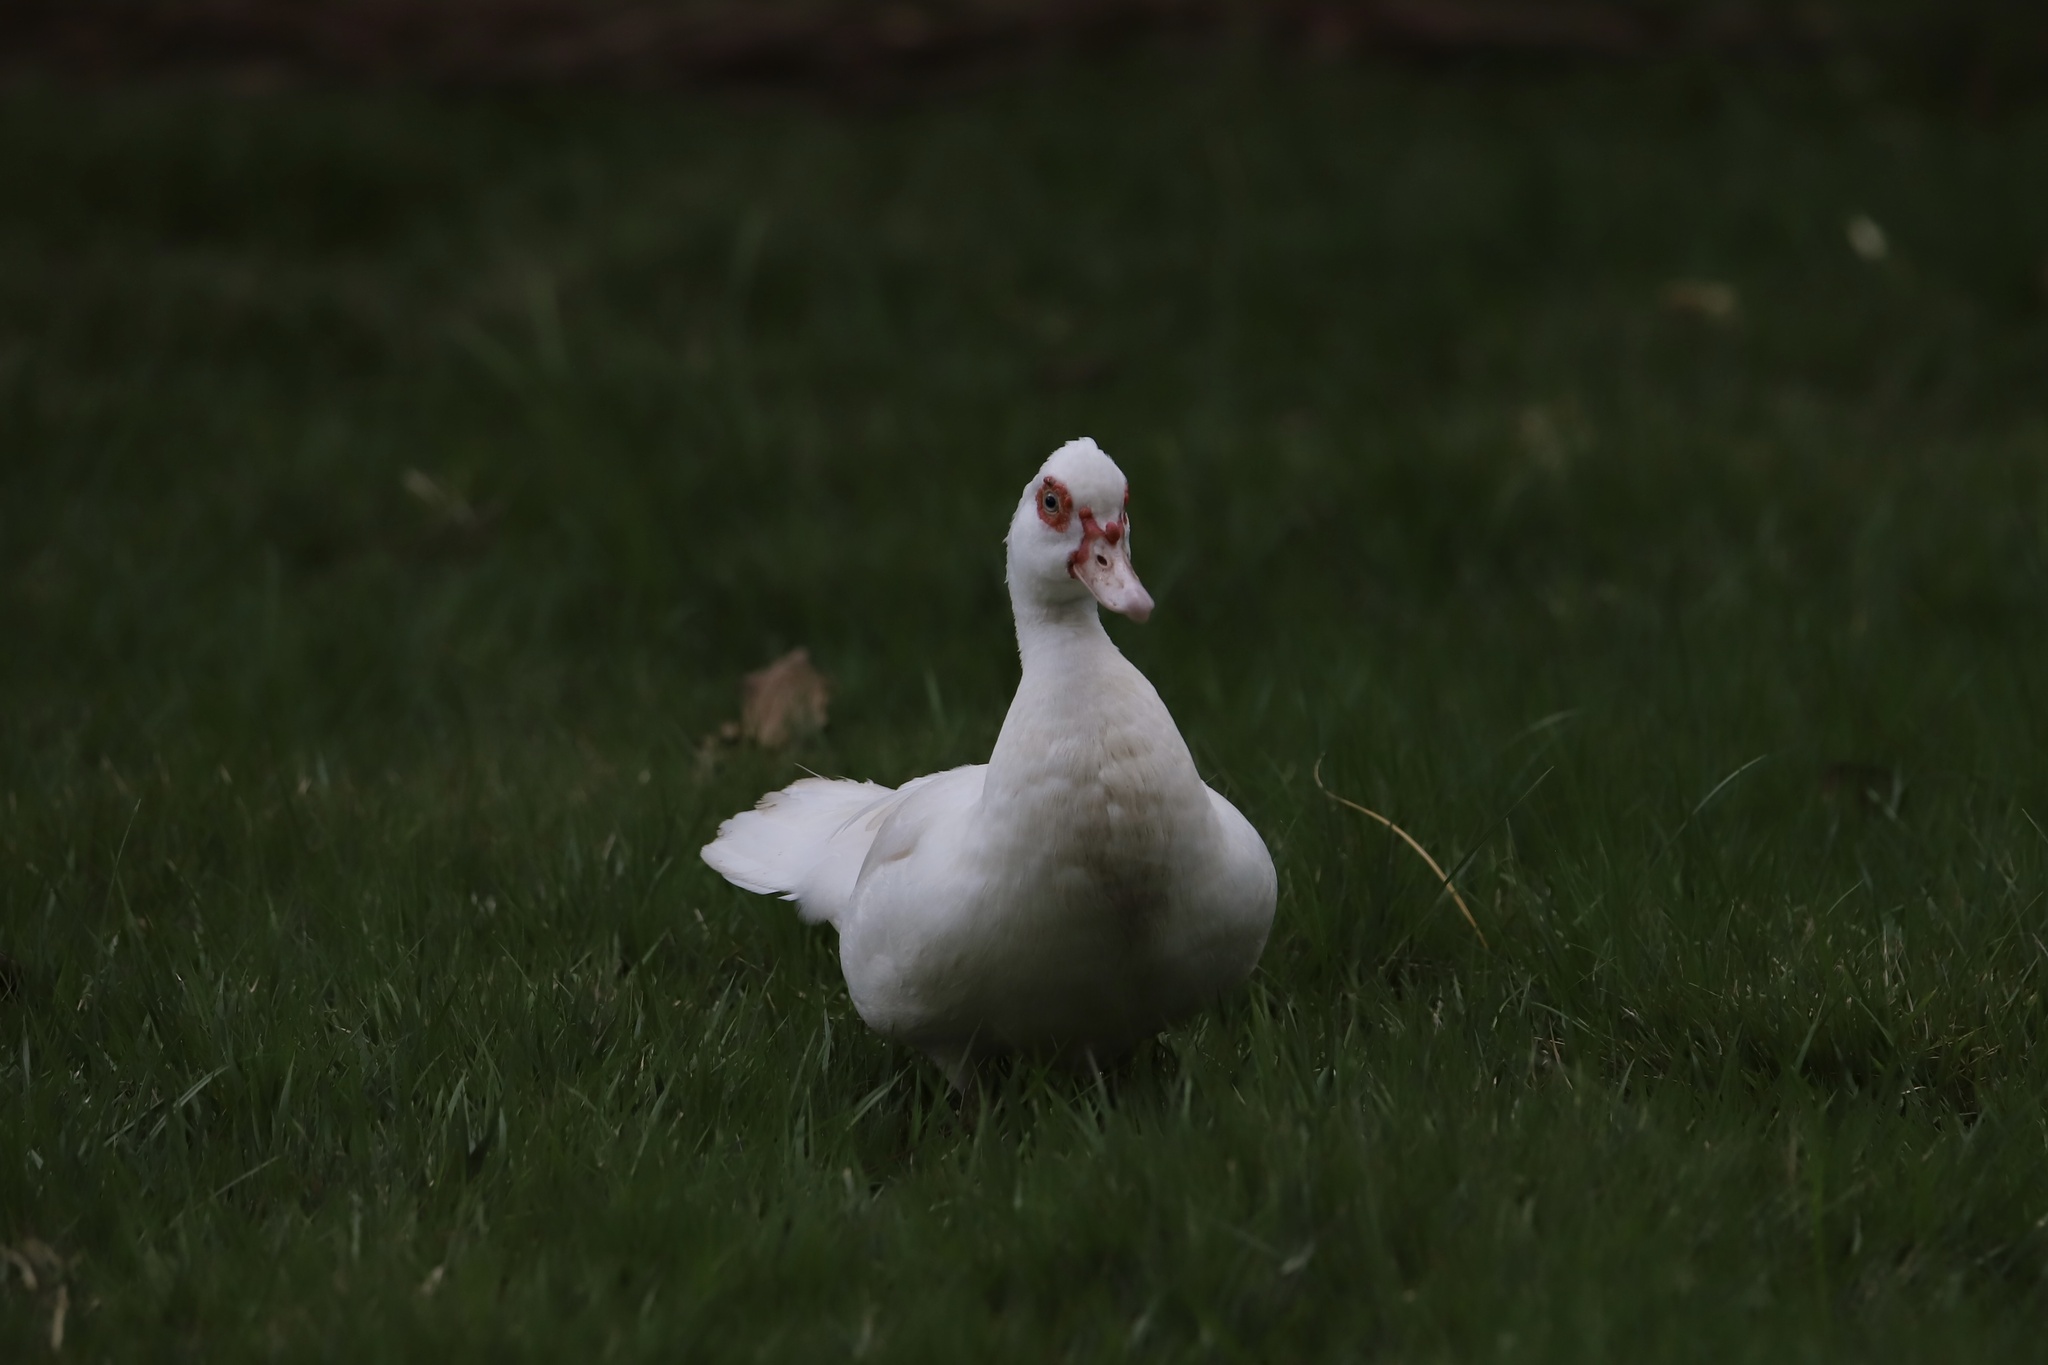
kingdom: Animalia
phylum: Chordata
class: Aves
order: Anseriformes
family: Anatidae
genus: Cairina
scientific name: Cairina moschata
